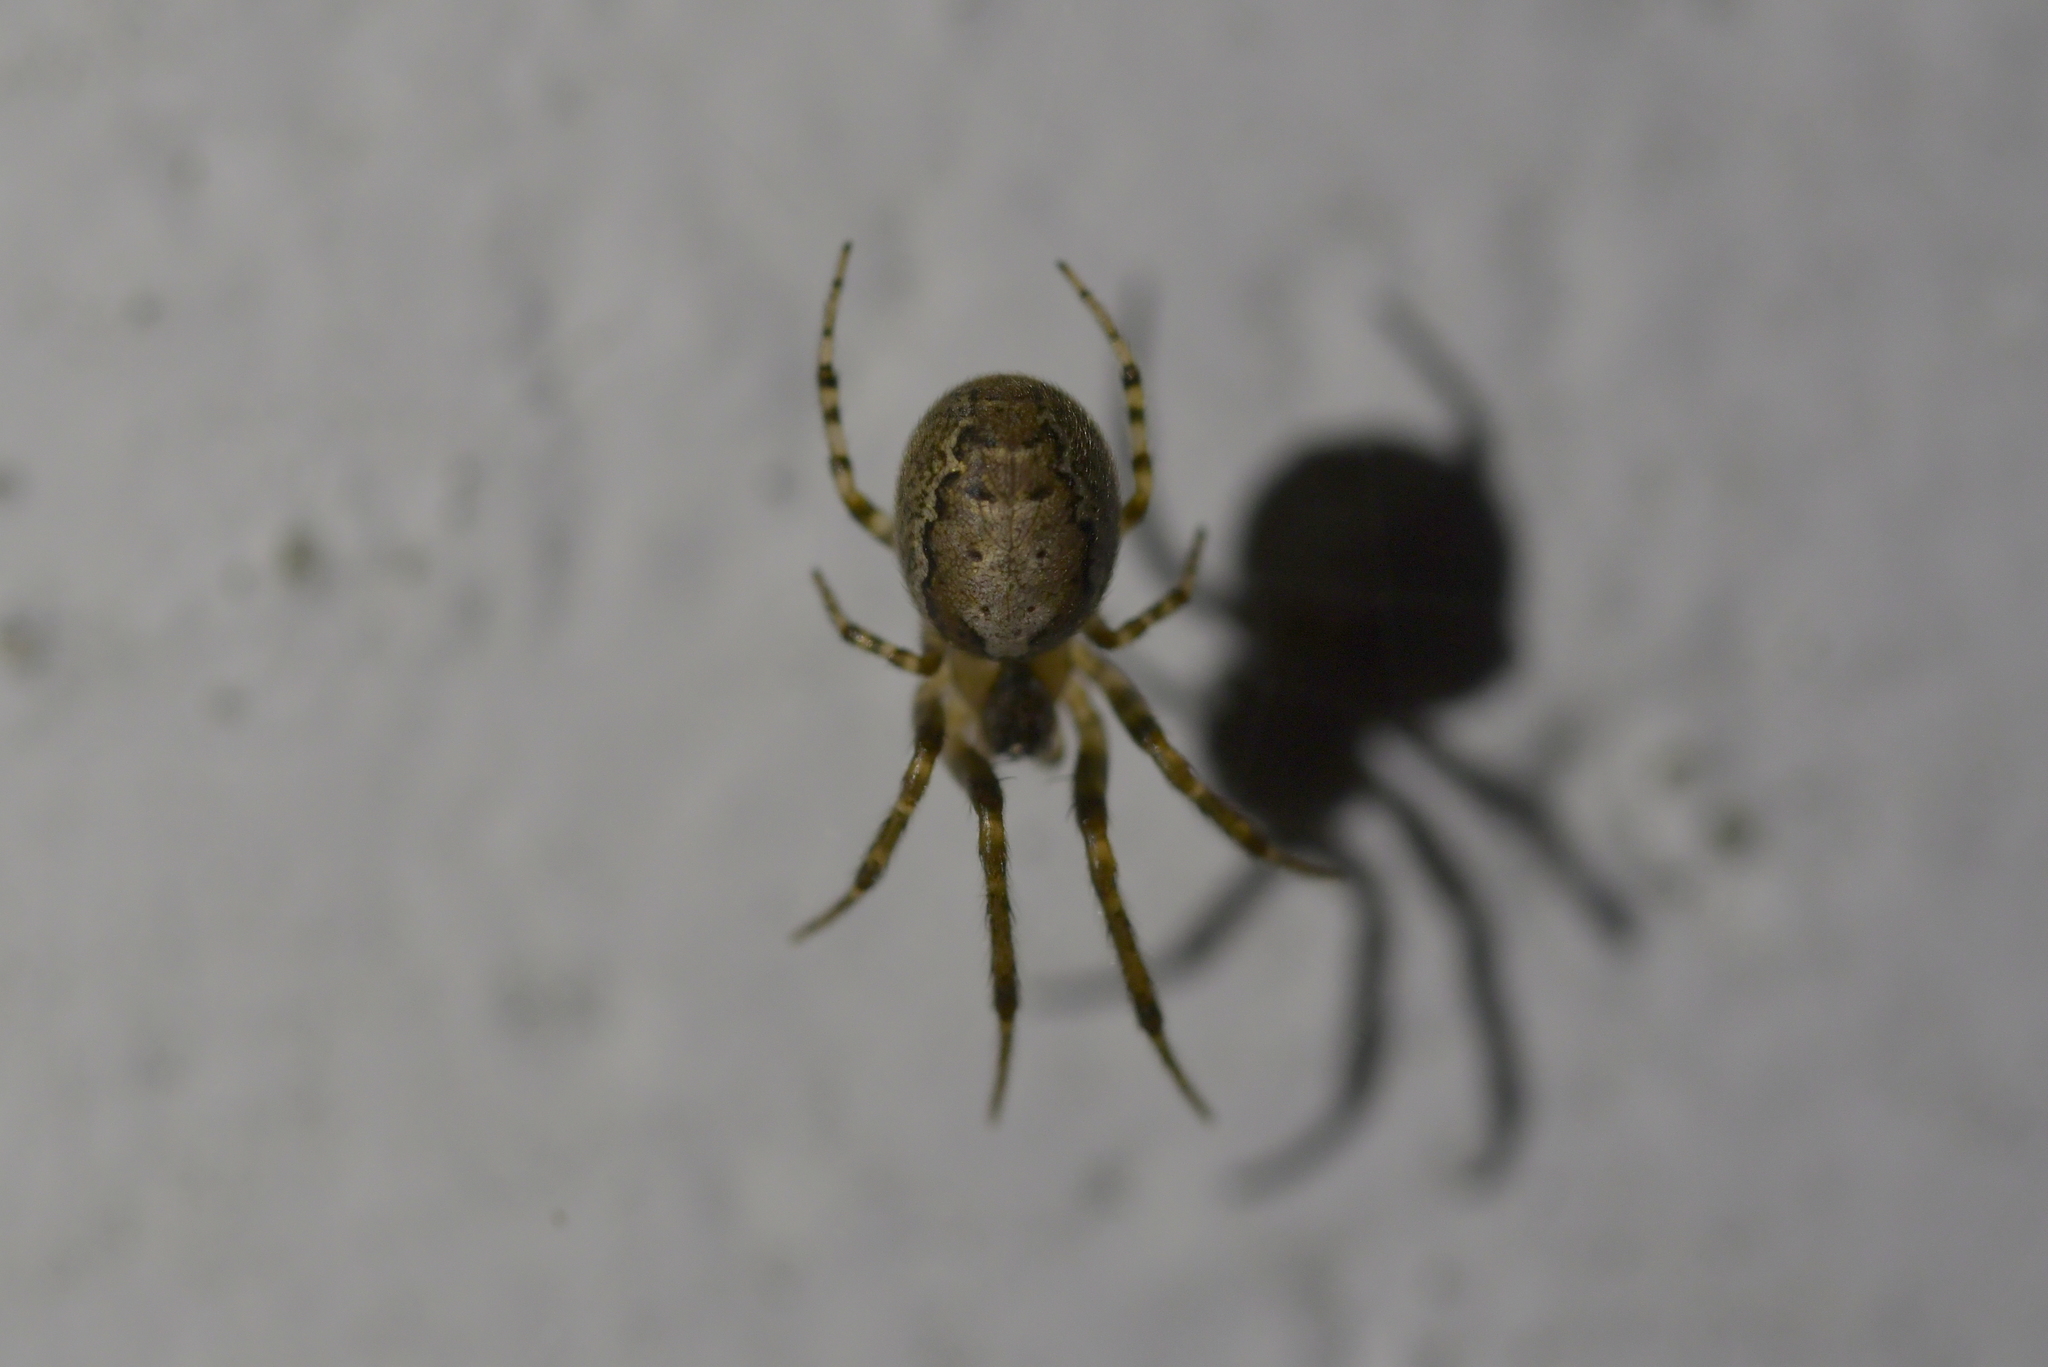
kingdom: Animalia
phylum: Arthropoda
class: Arachnida
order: Araneae
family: Araneidae
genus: Zygiella
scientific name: Zygiella x-notata
